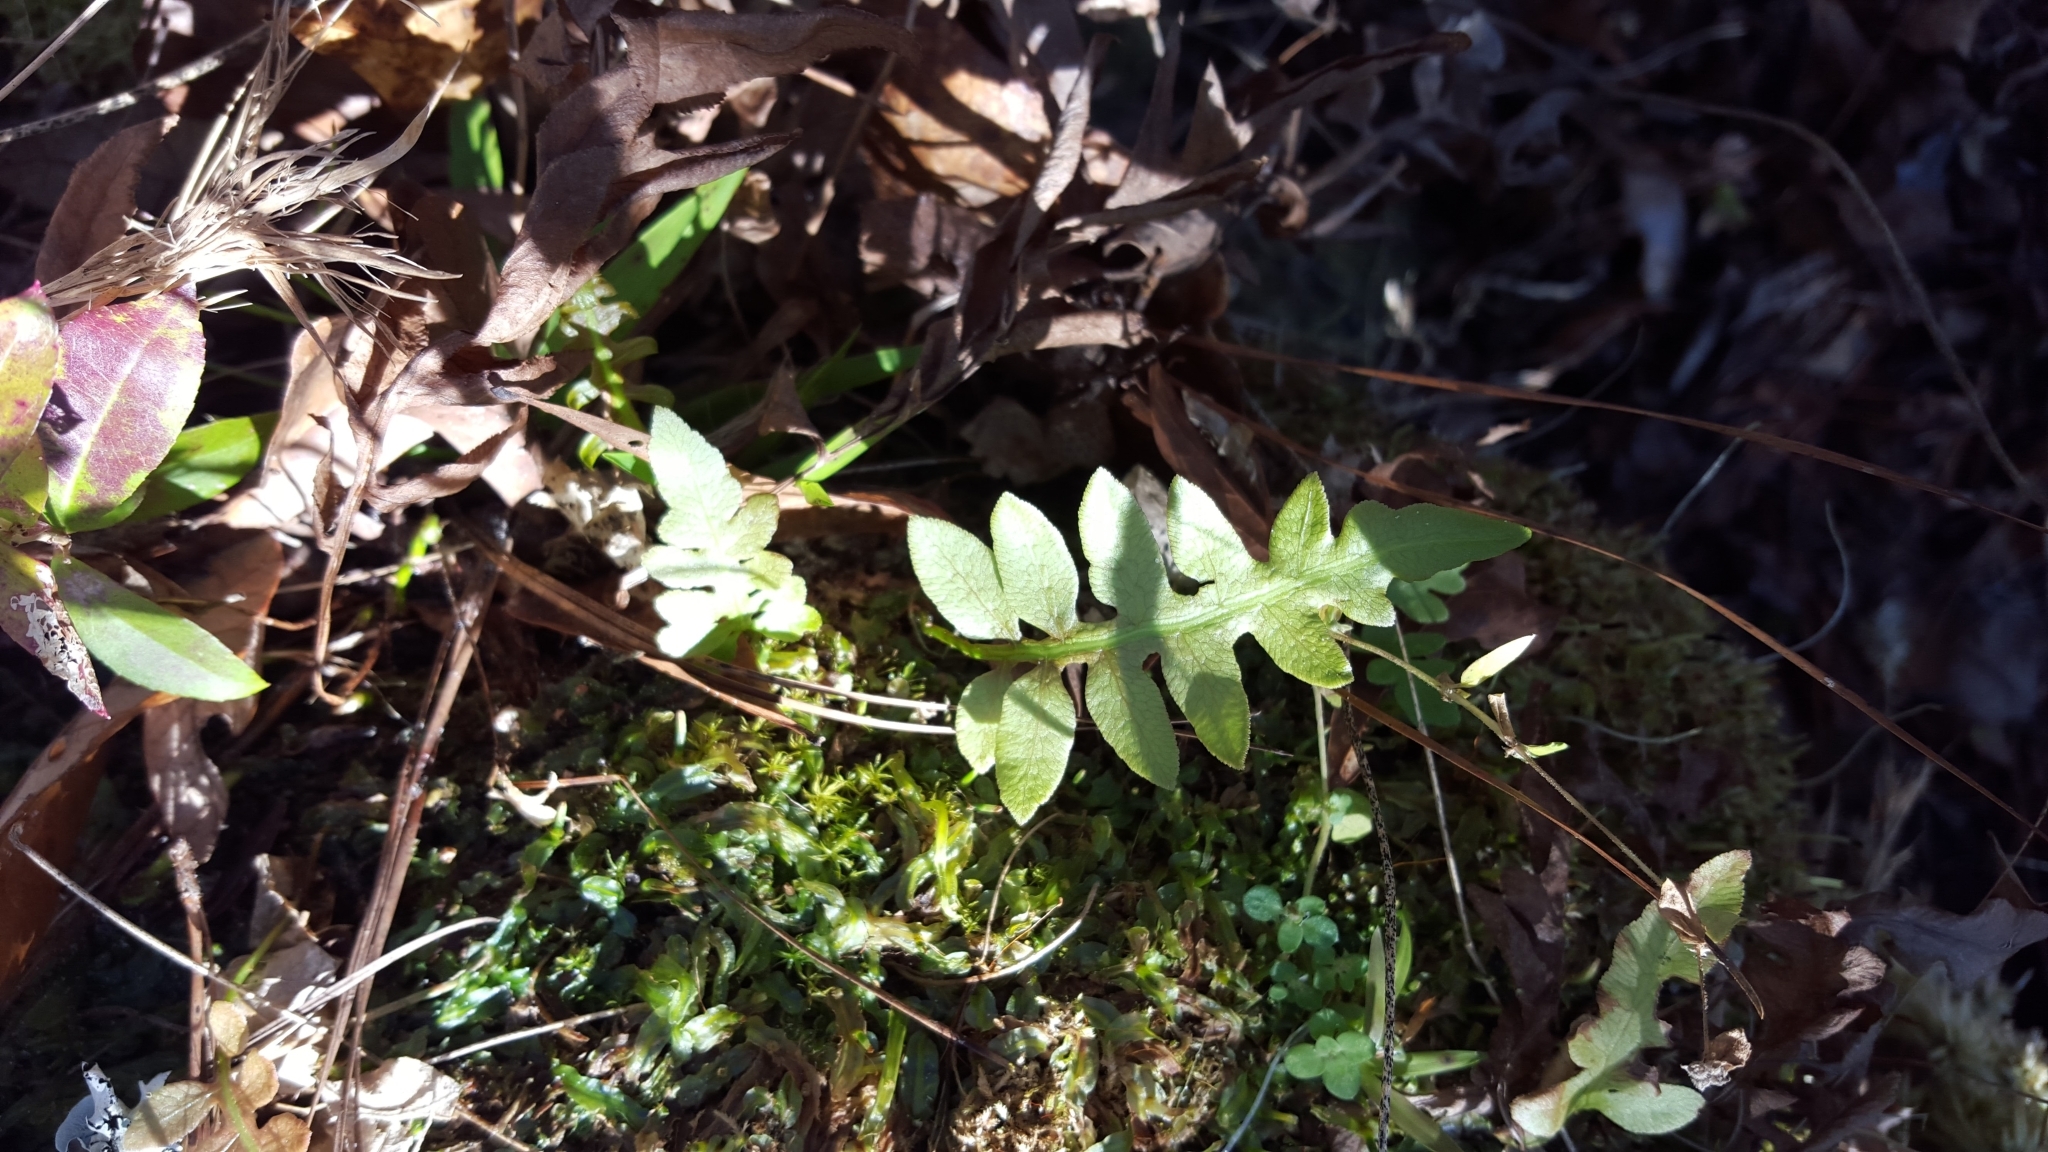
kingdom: Plantae
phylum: Tracheophyta
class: Polypodiopsida
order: Polypodiales
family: Blechnaceae
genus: Lorinseria
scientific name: Lorinseria areolata
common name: Dwarf chain fern
